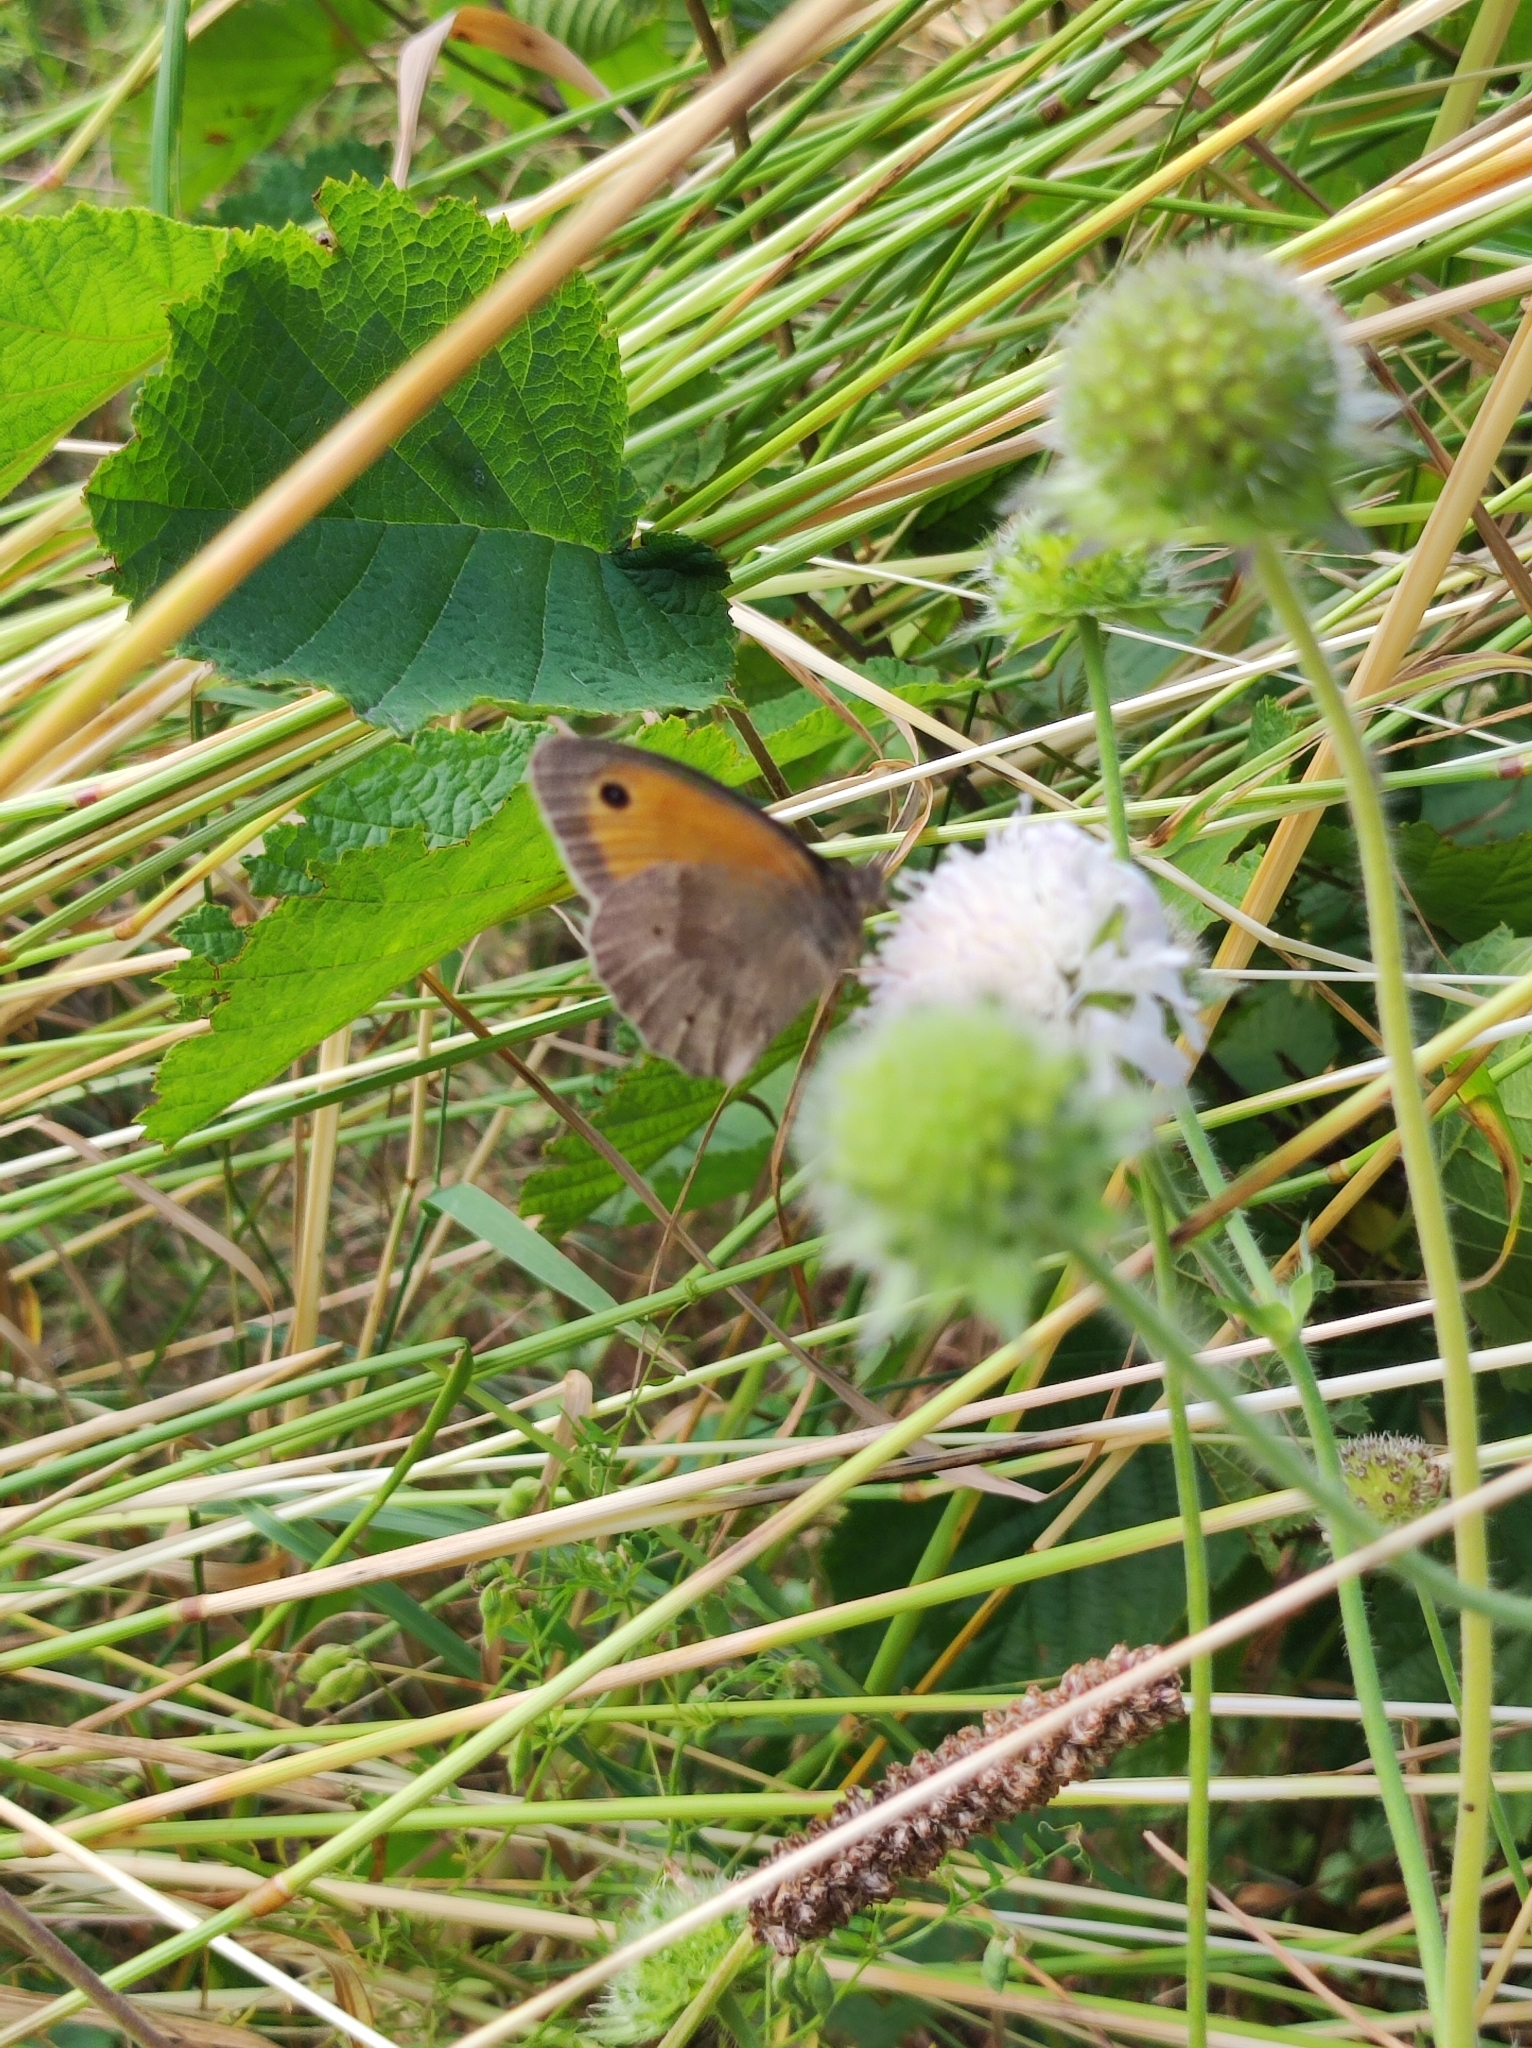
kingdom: Animalia
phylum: Arthropoda
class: Insecta
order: Lepidoptera
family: Nymphalidae
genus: Maniola
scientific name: Maniola jurtina
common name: Meadow brown
